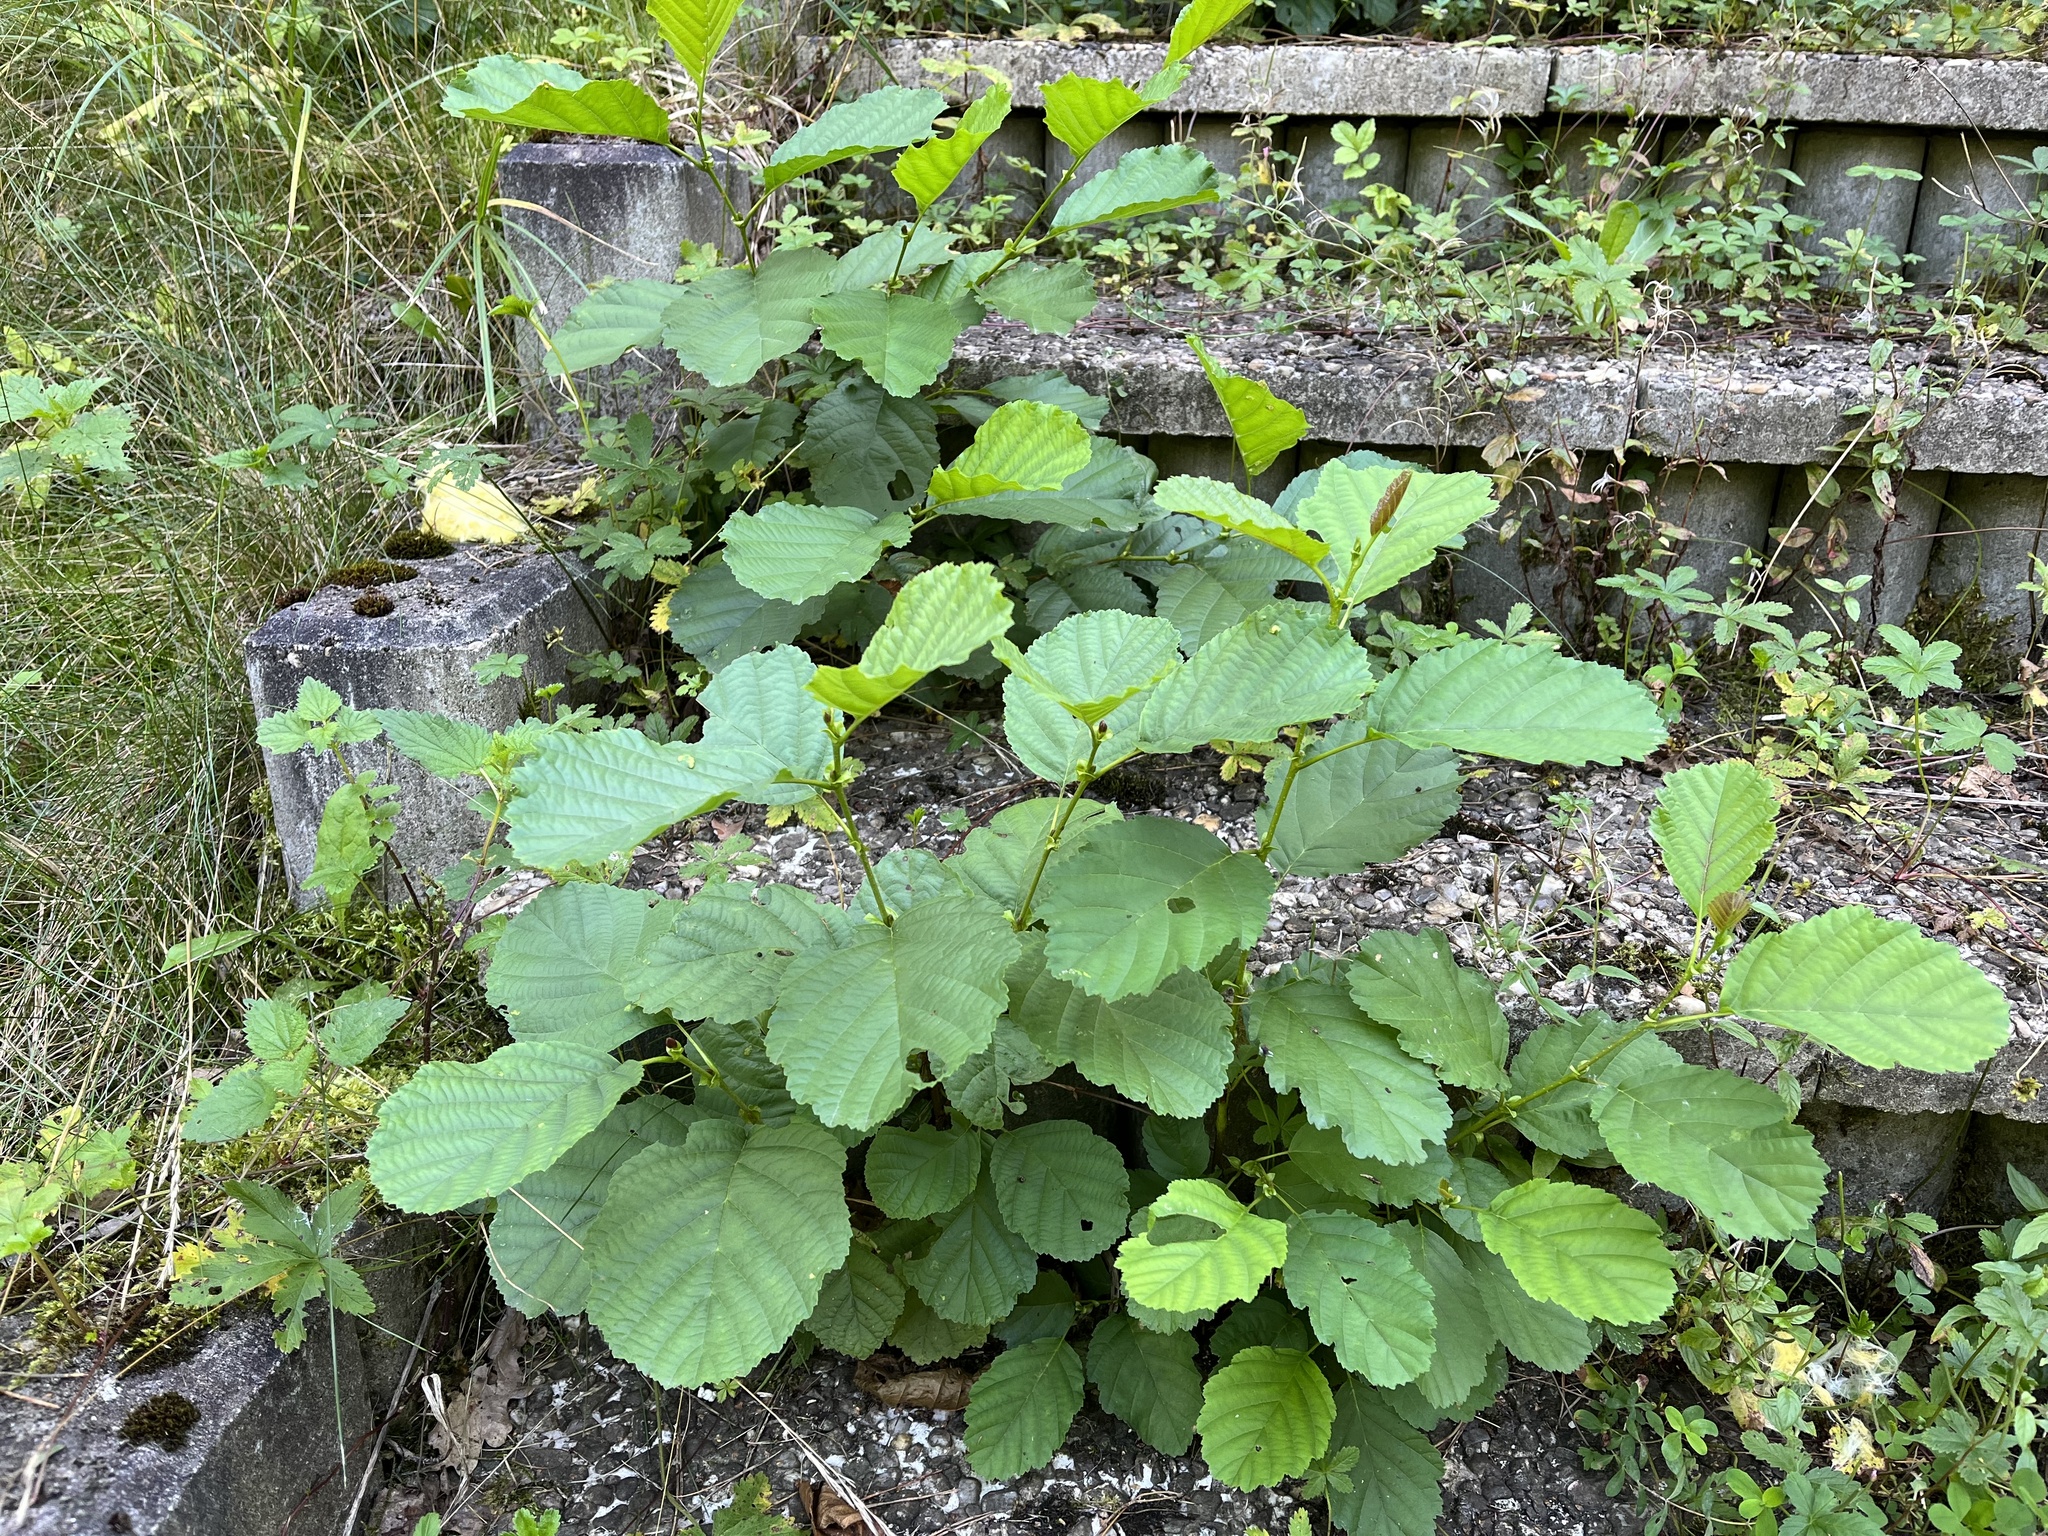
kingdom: Plantae
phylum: Tracheophyta
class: Magnoliopsida
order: Fagales
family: Betulaceae
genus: Alnus
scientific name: Alnus glutinosa
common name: Black alder
